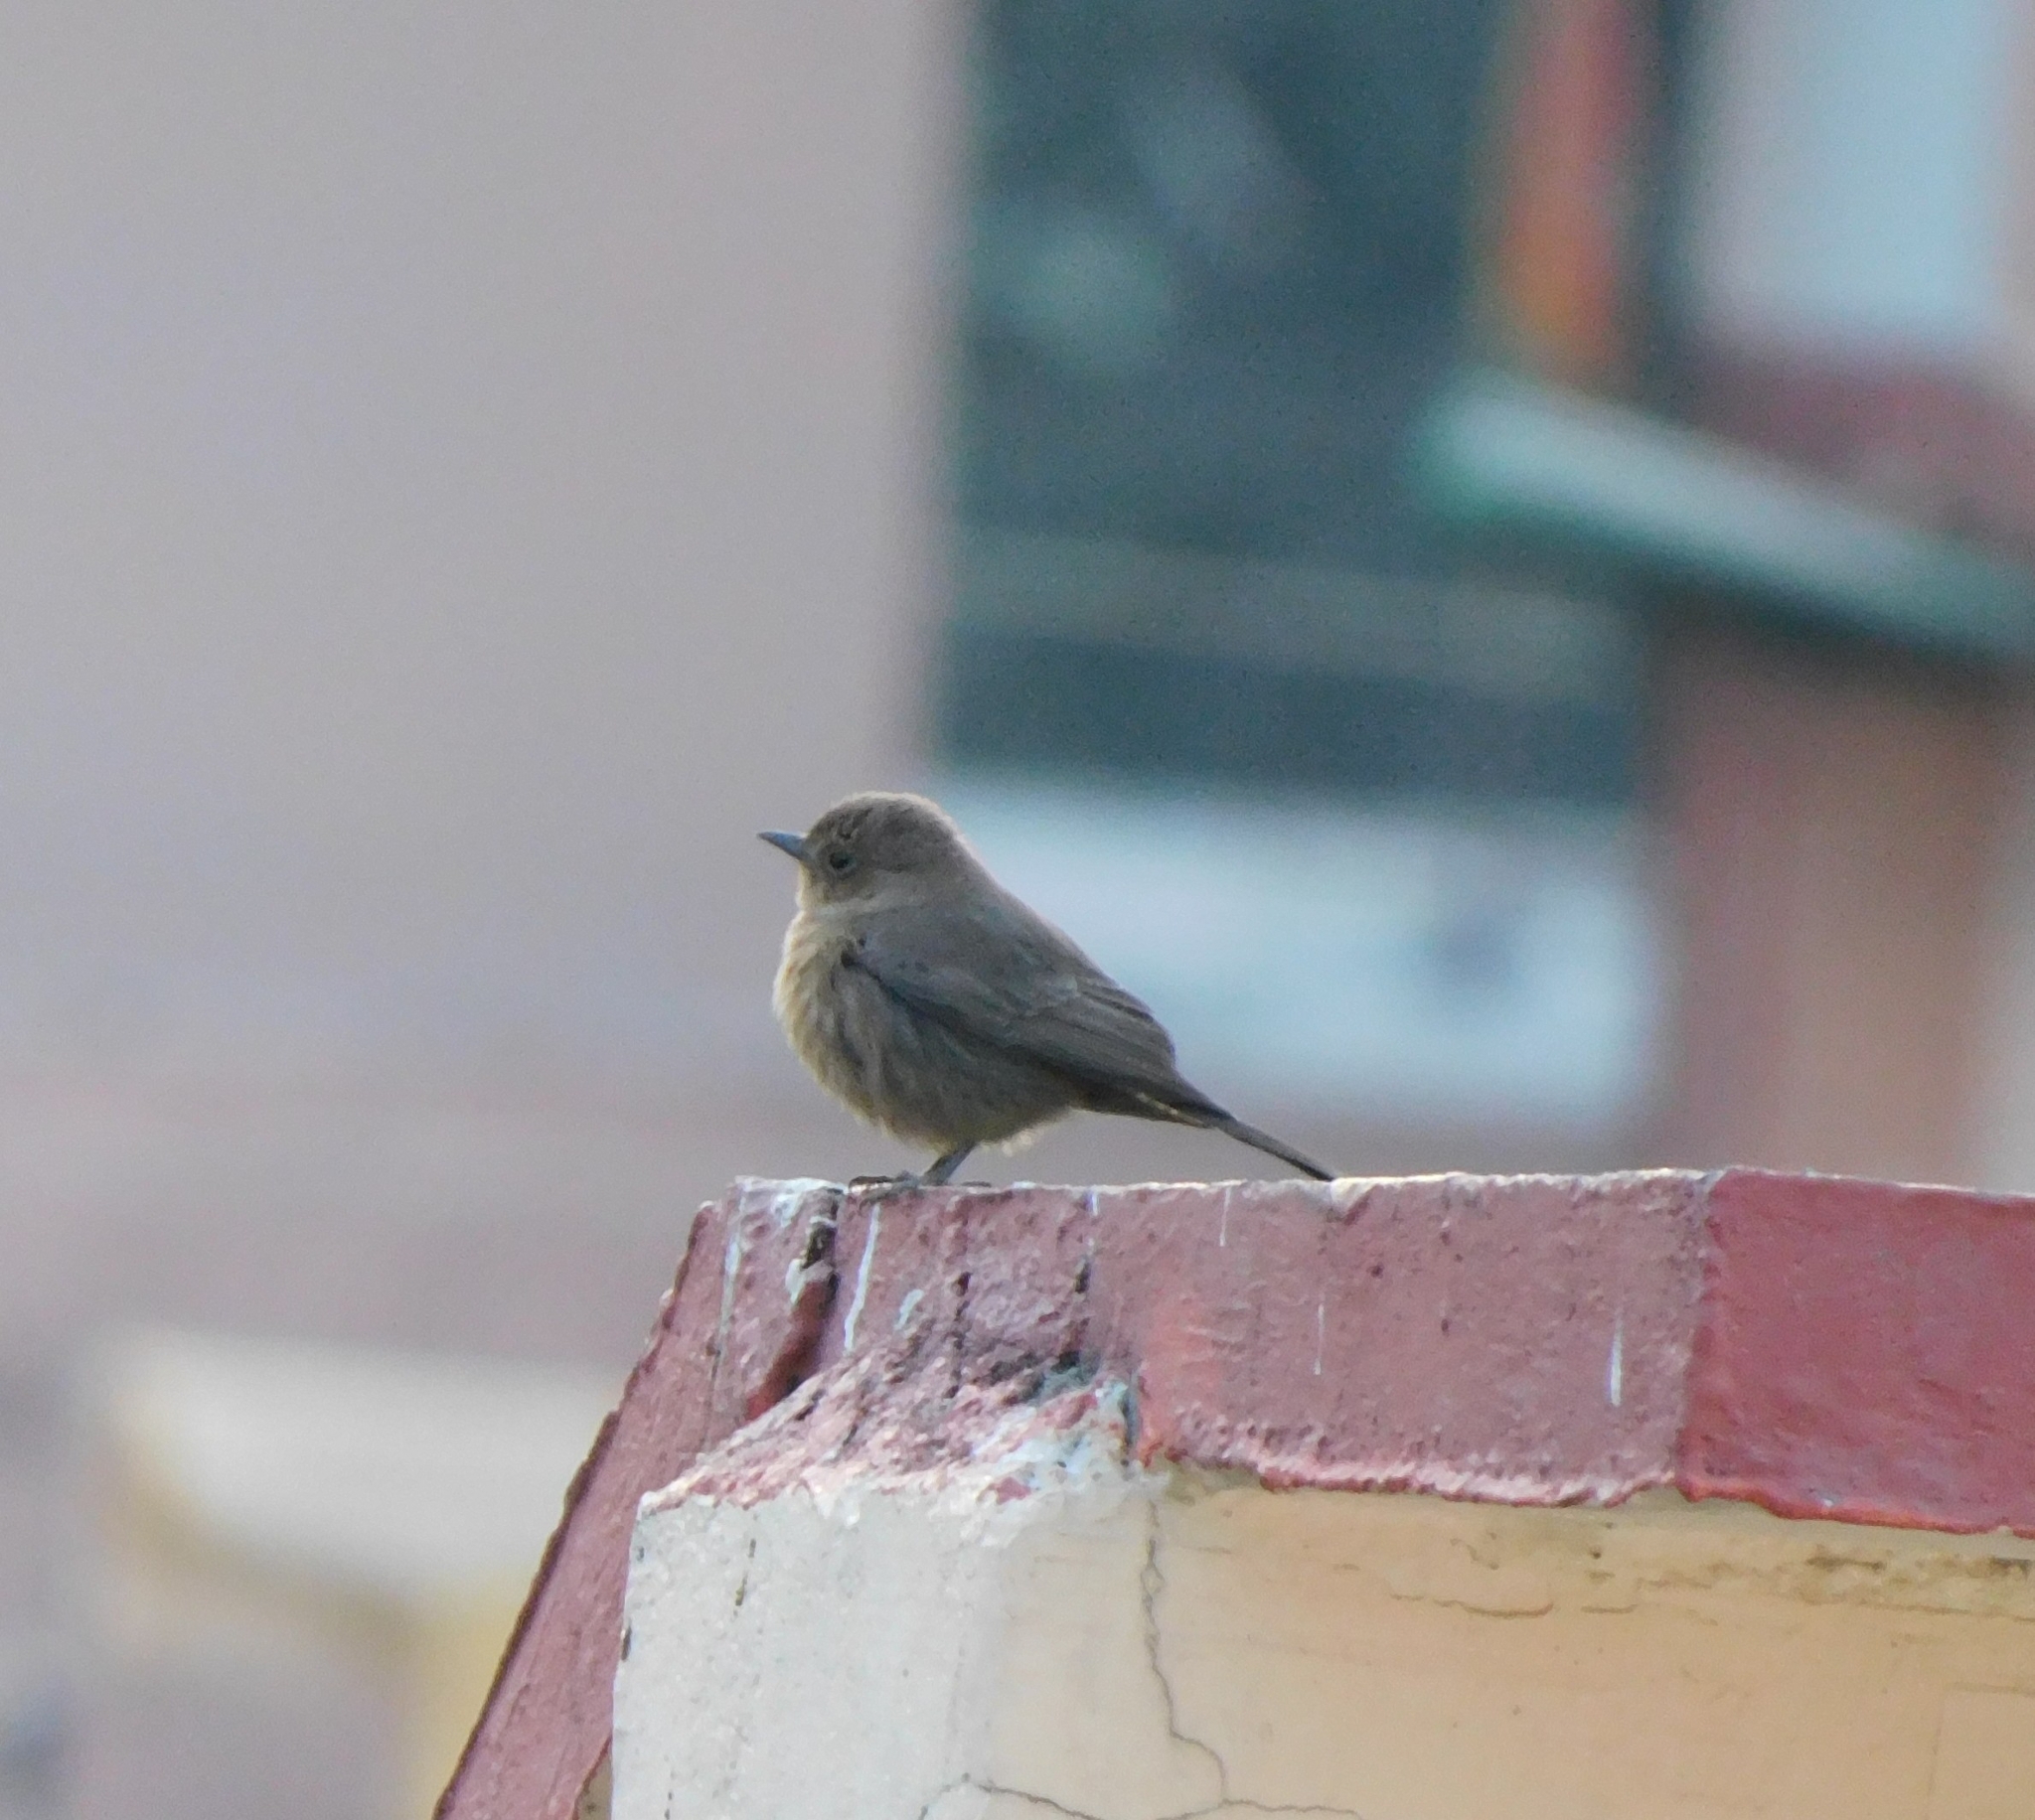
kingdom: Animalia
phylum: Chordata
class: Aves
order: Passeriformes
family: Muscicapidae
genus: Oenanthe
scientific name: Oenanthe fusca
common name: Brown rock chat
